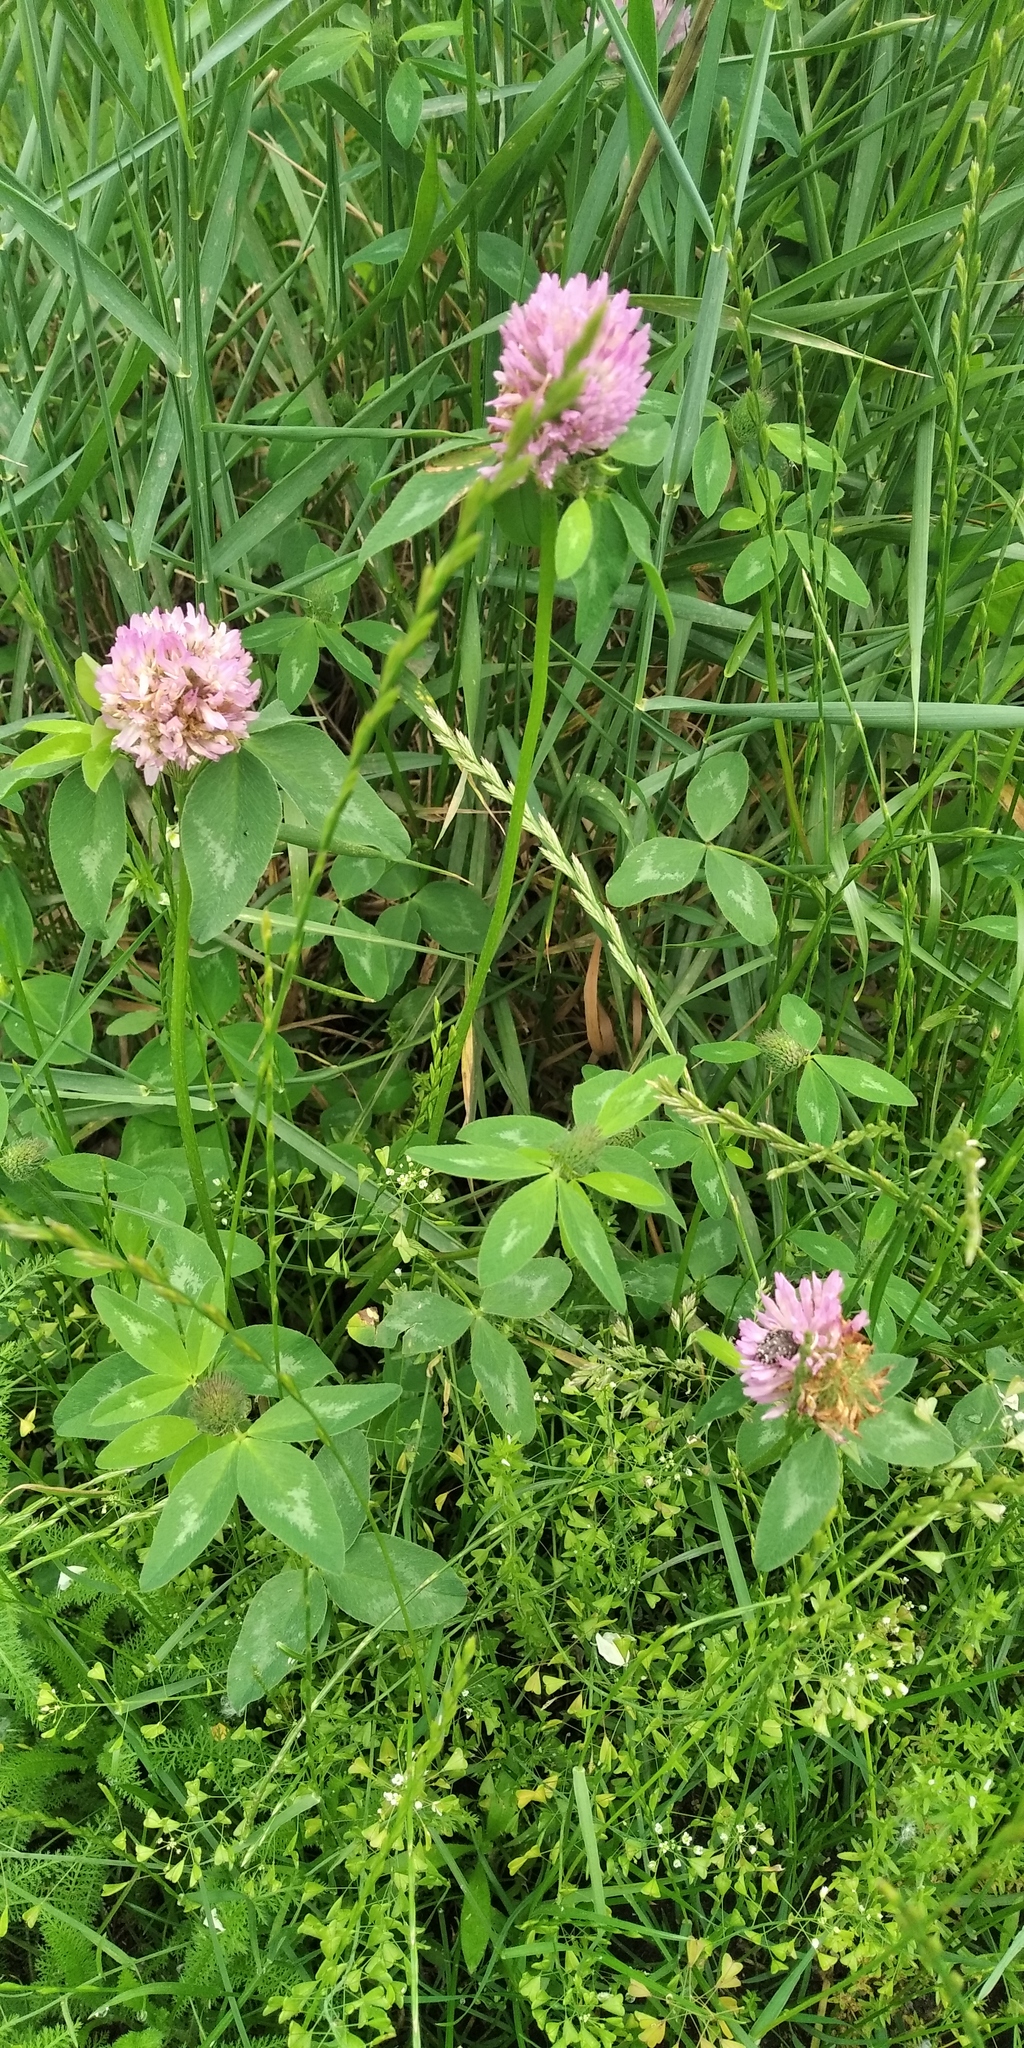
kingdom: Plantae
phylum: Tracheophyta
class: Magnoliopsida
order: Fabales
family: Fabaceae
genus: Trifolium
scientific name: Trifolium pratense
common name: Red clover
